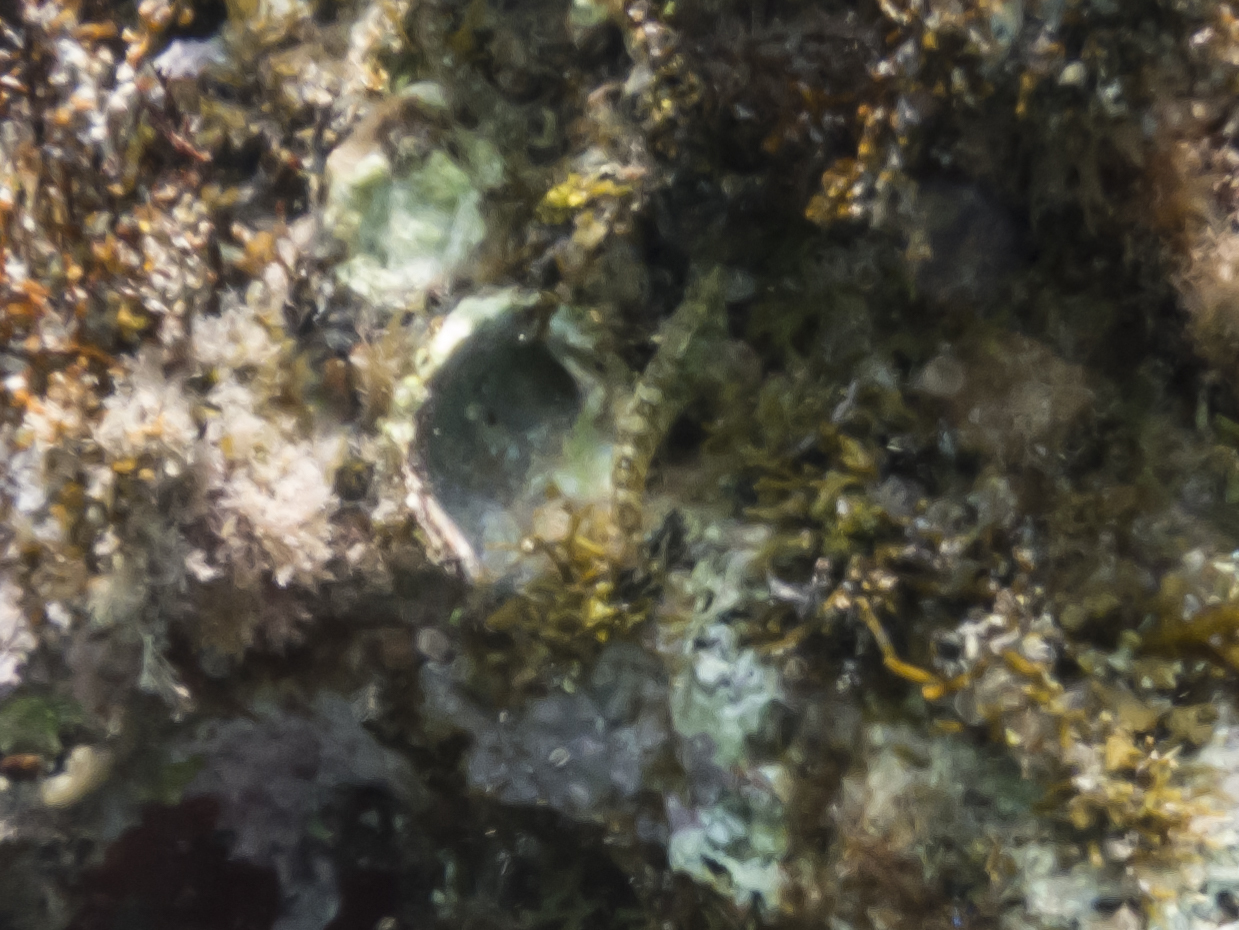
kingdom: Animalia
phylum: Chordata
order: Perciformes
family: Tripterygiidae
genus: Tripterygion
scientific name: Tripterygion tripteronotum
